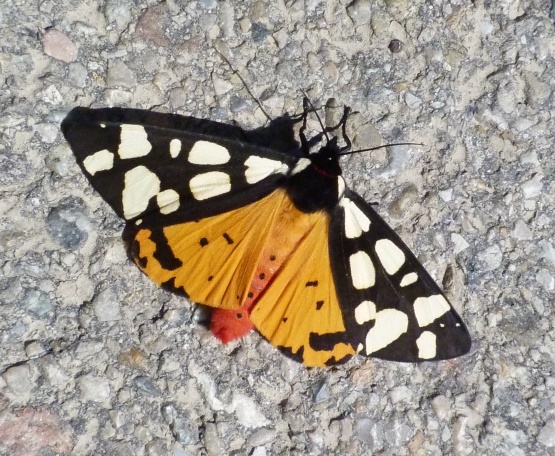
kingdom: Animalia
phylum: Arthropoda
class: Insecta
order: Lepidoptera
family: Erebidae
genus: Epicallia
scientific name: Epicallia villica
